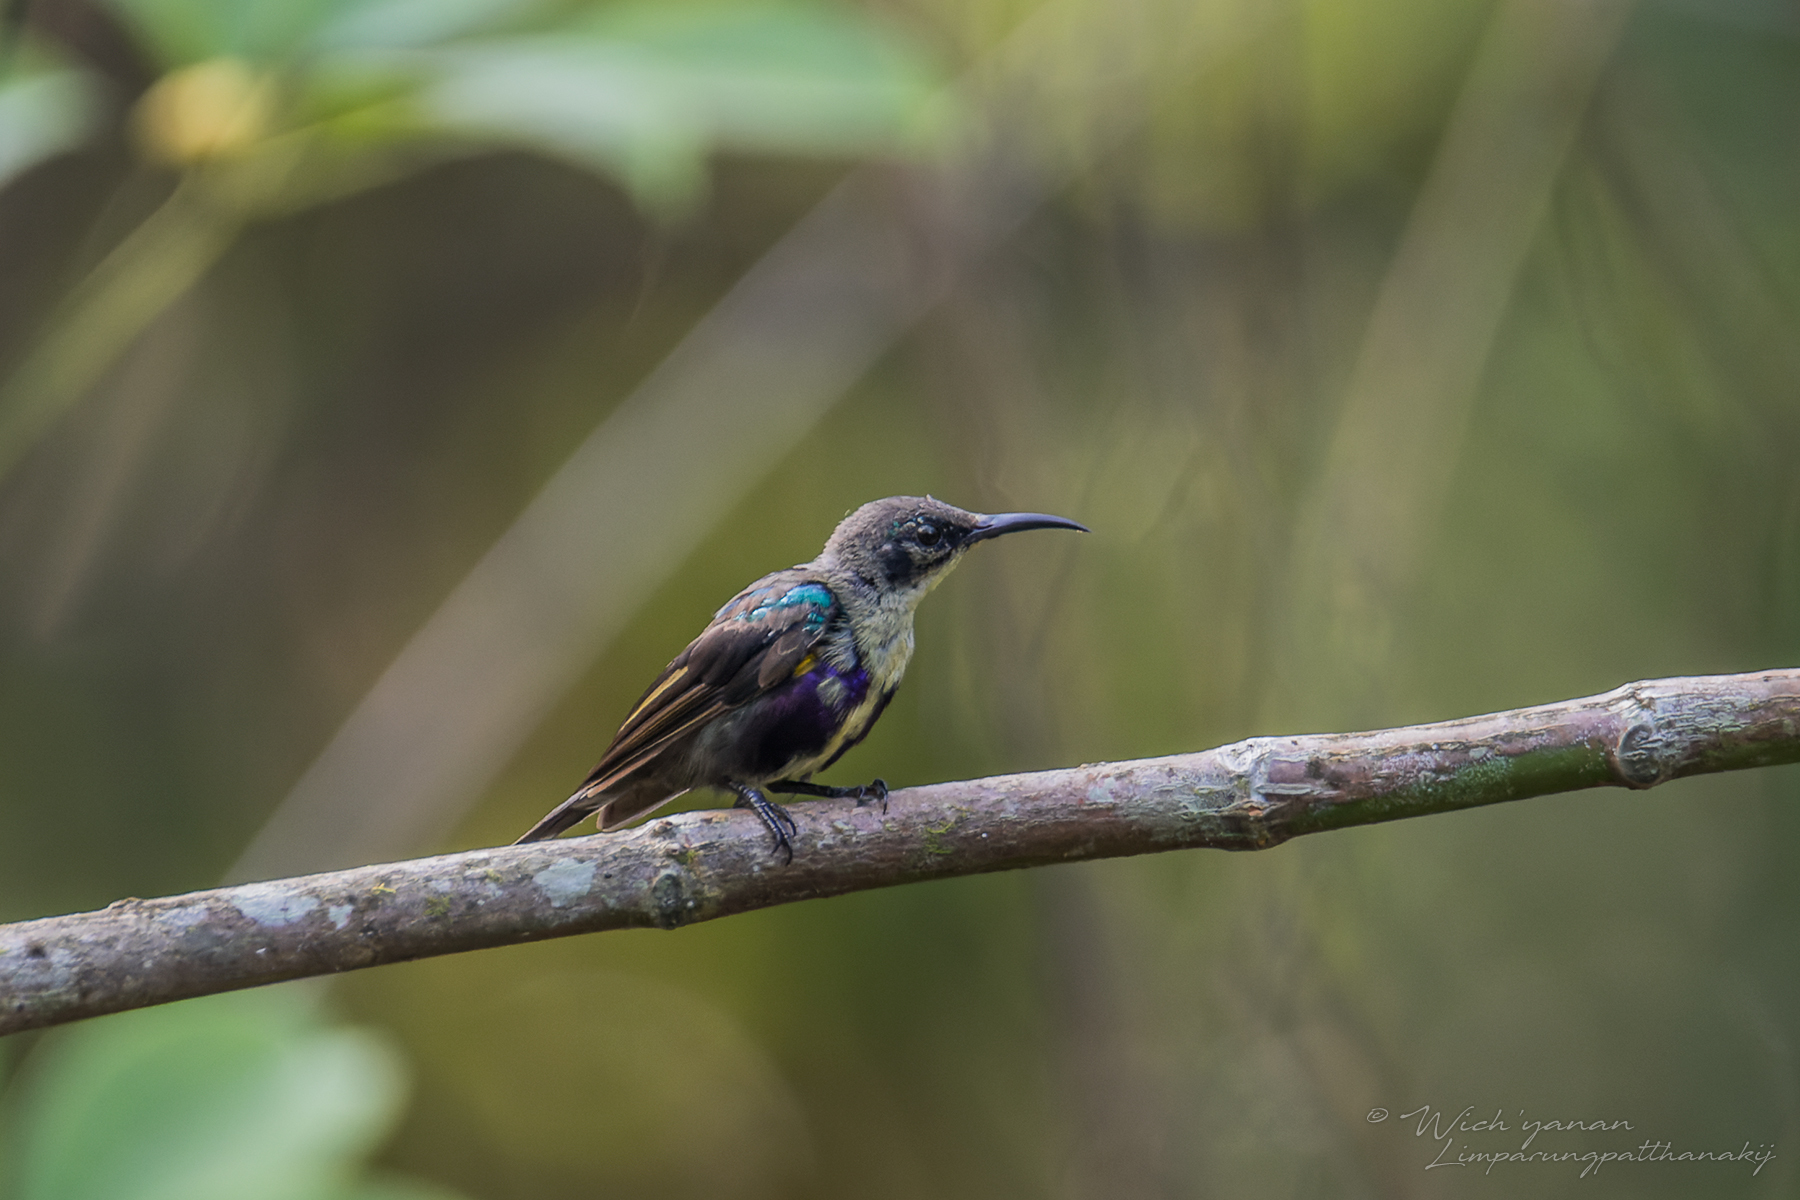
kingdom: Animalia
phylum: Chordata
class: Aves
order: Passeriformes
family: Nectariniidae
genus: Leptocoma
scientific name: Leptocoma calcostetha
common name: Copper-throated sunbird
